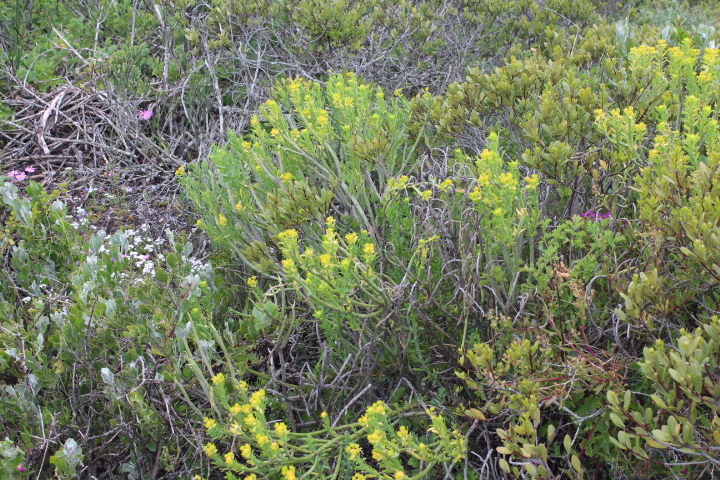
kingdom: Plantae
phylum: Tracheophyta
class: Magnoliopsida
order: Malpighiales
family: Euphorbiaceae
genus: Euphorbia
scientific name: Euphorbia mauritanica
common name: Jackal's-food
